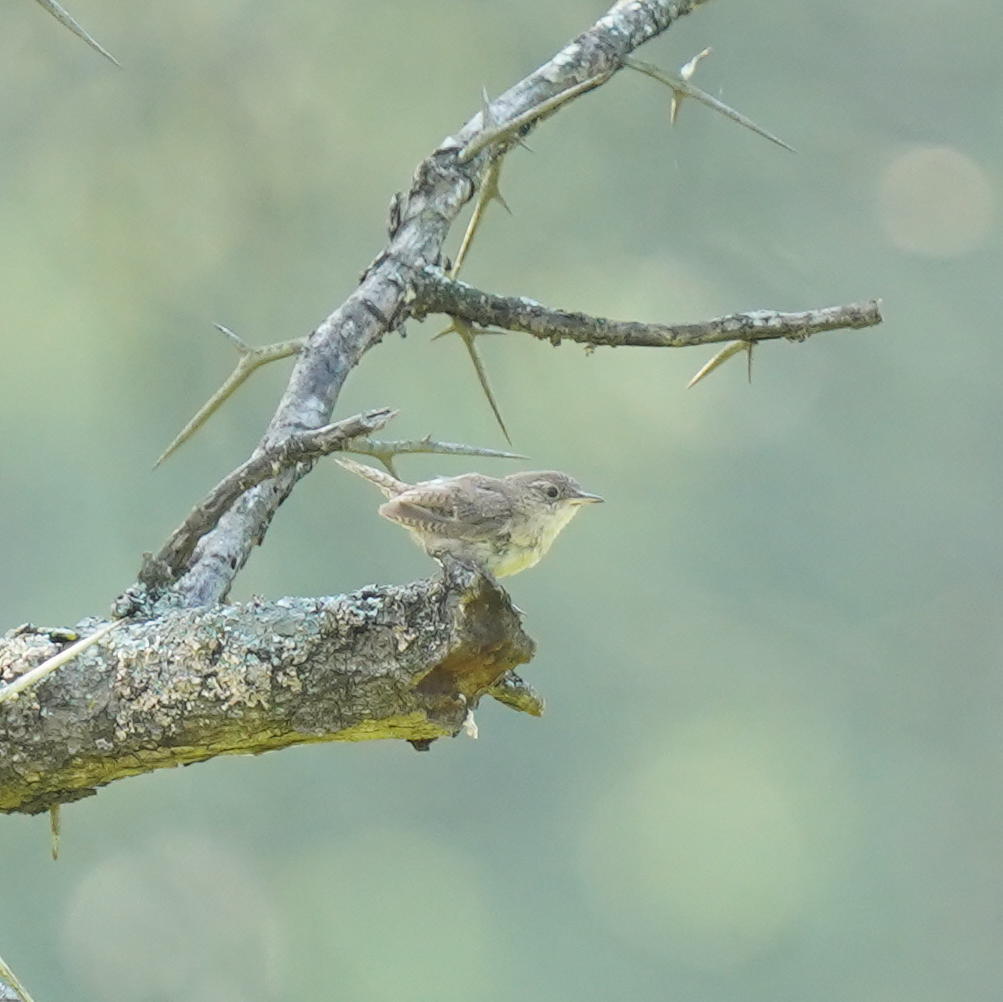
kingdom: Animalia
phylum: Chordata
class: Aves
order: Passeriformes
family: Troglodytidae
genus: Troglodytes
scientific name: Troglodytes aedon
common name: House wren
